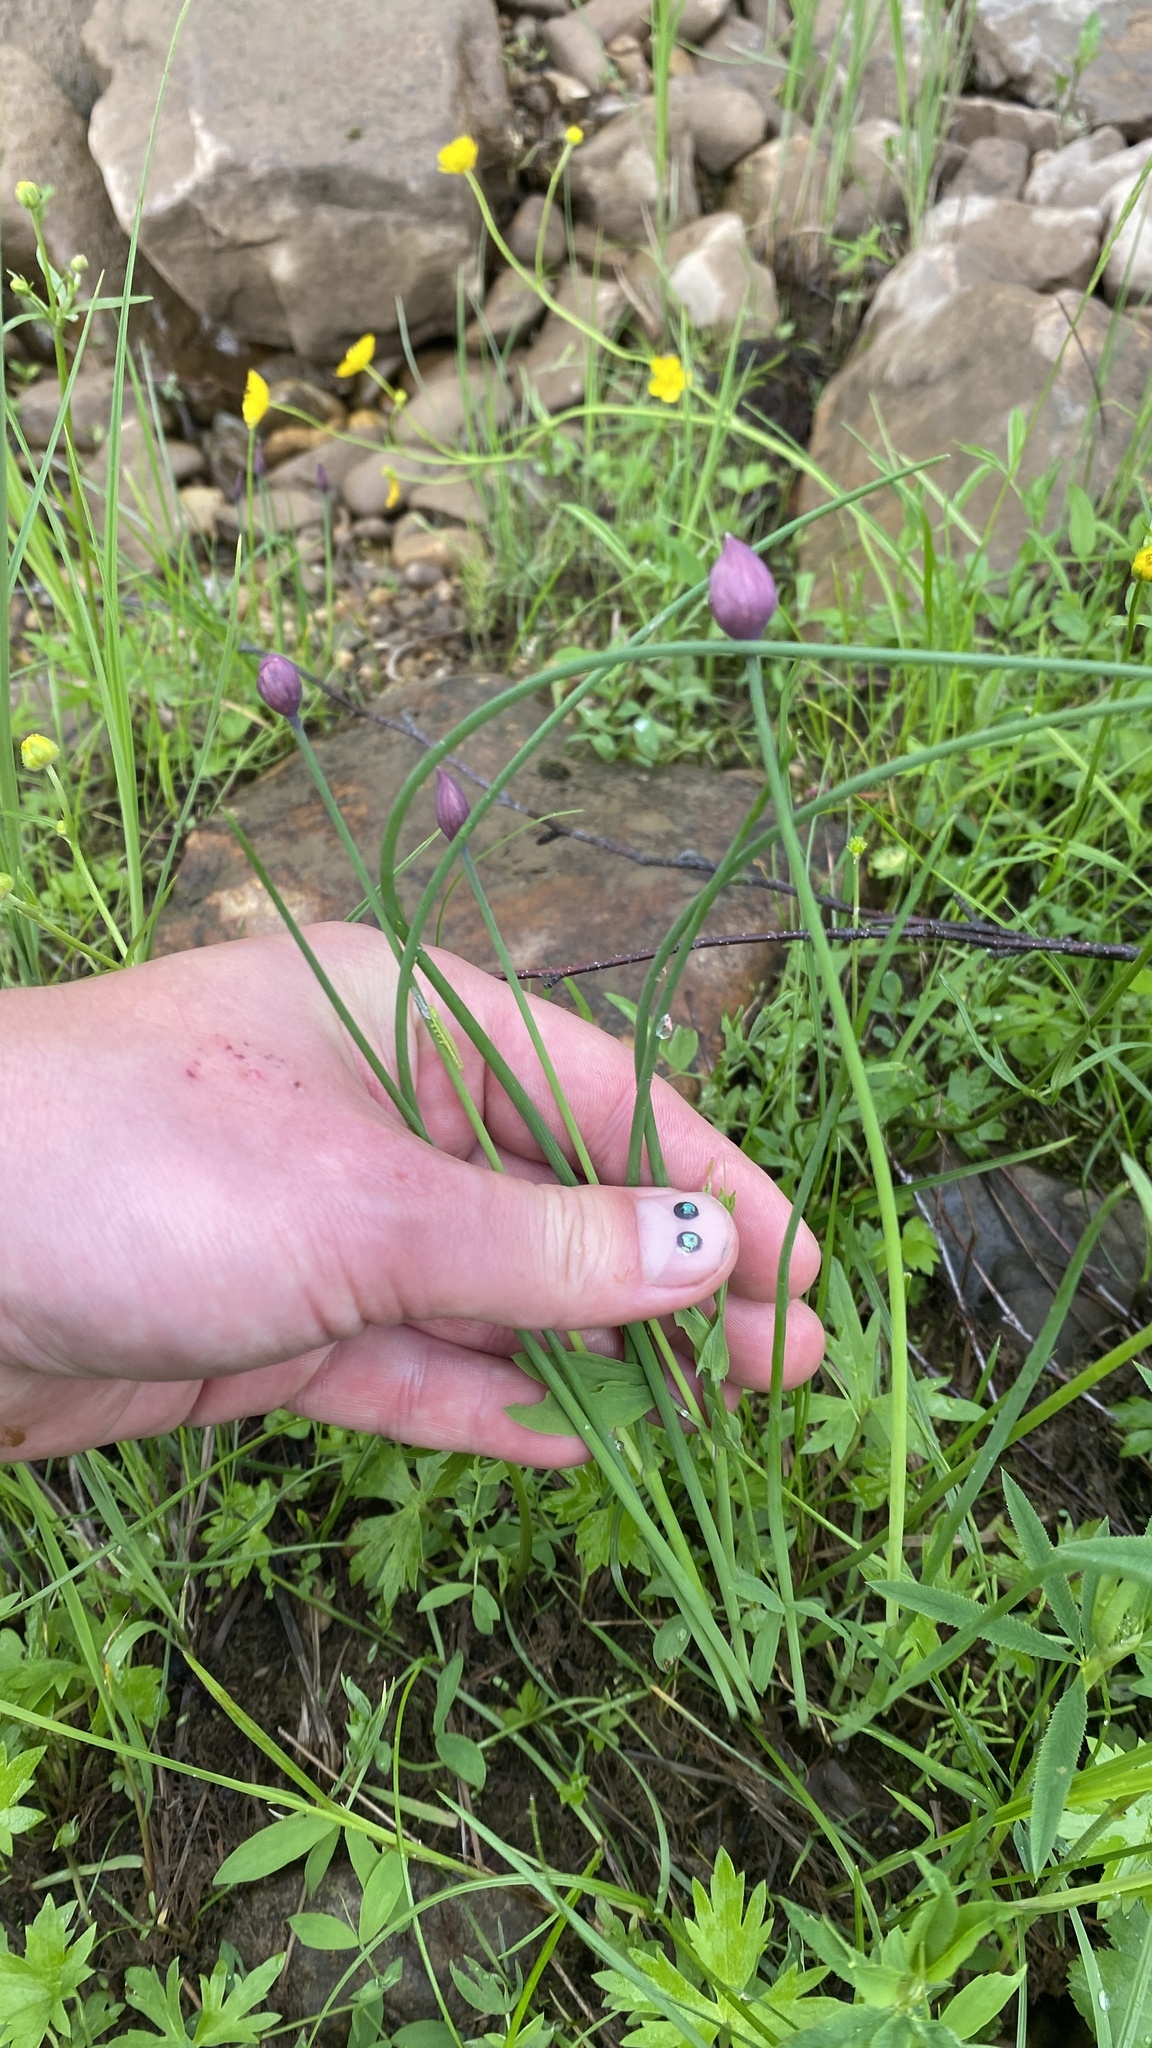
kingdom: Plantae
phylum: Tracheophyta
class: Liliopsida
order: Asparagales
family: Amaryllidaceae
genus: Allium
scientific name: Allium schoenoprasum
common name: Chives
